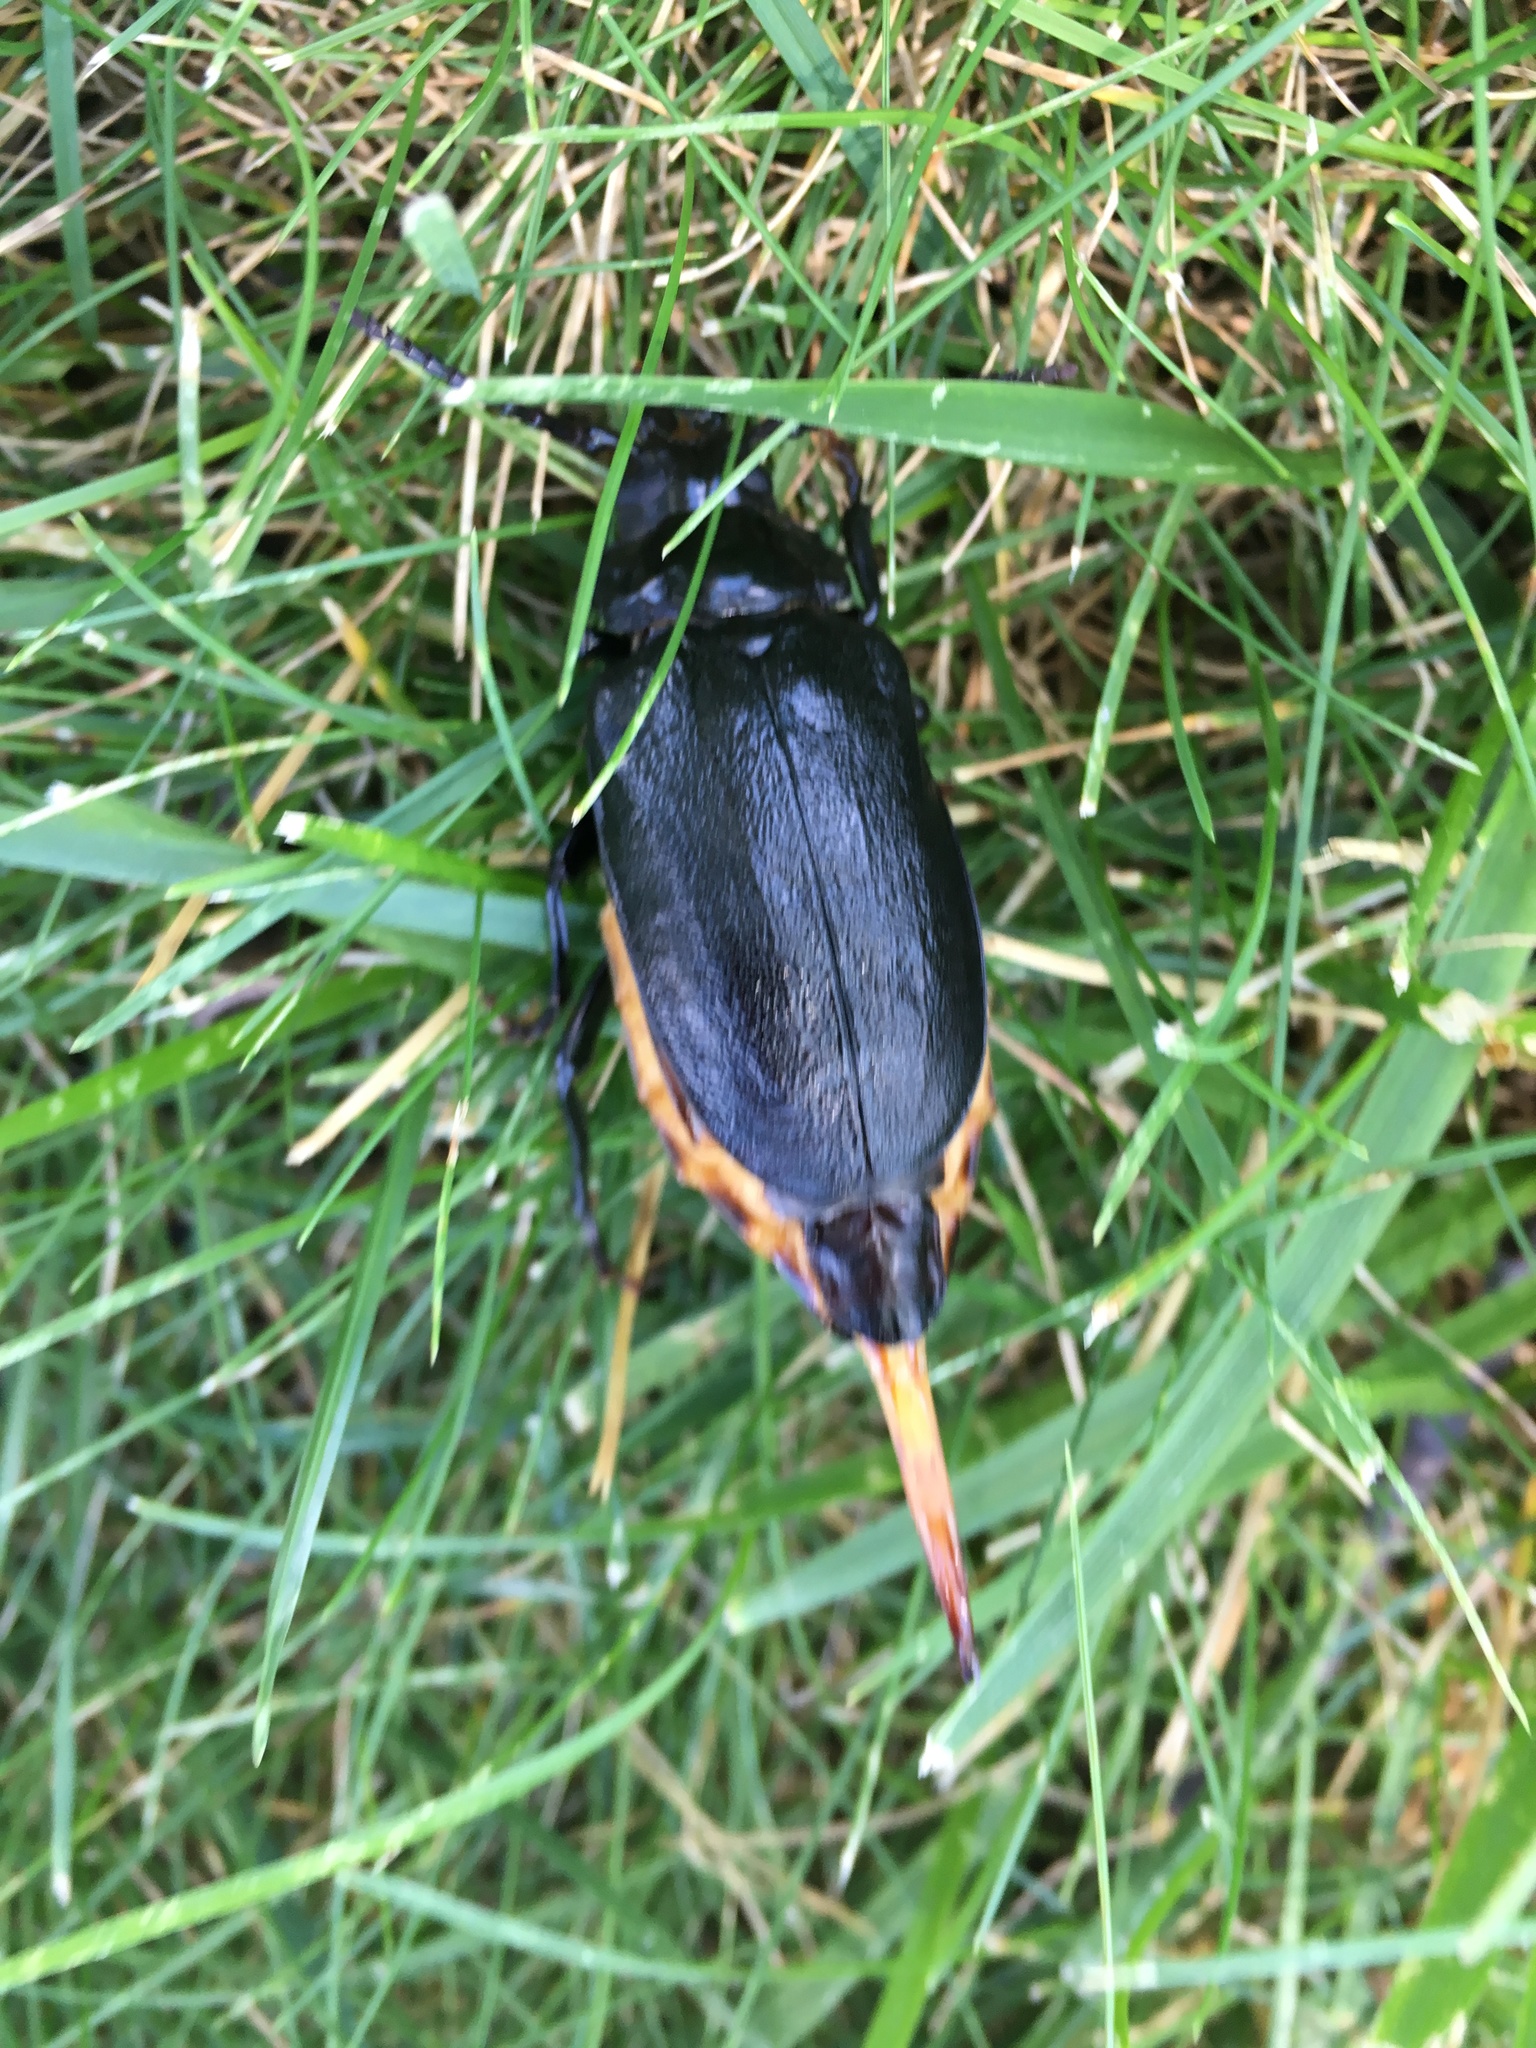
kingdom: Animalia
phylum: Arthropoda
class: Insecta
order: Coleoptera
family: Cerambycidae
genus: Prionus
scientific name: Prionus laticollis
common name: Broad necked prionus
